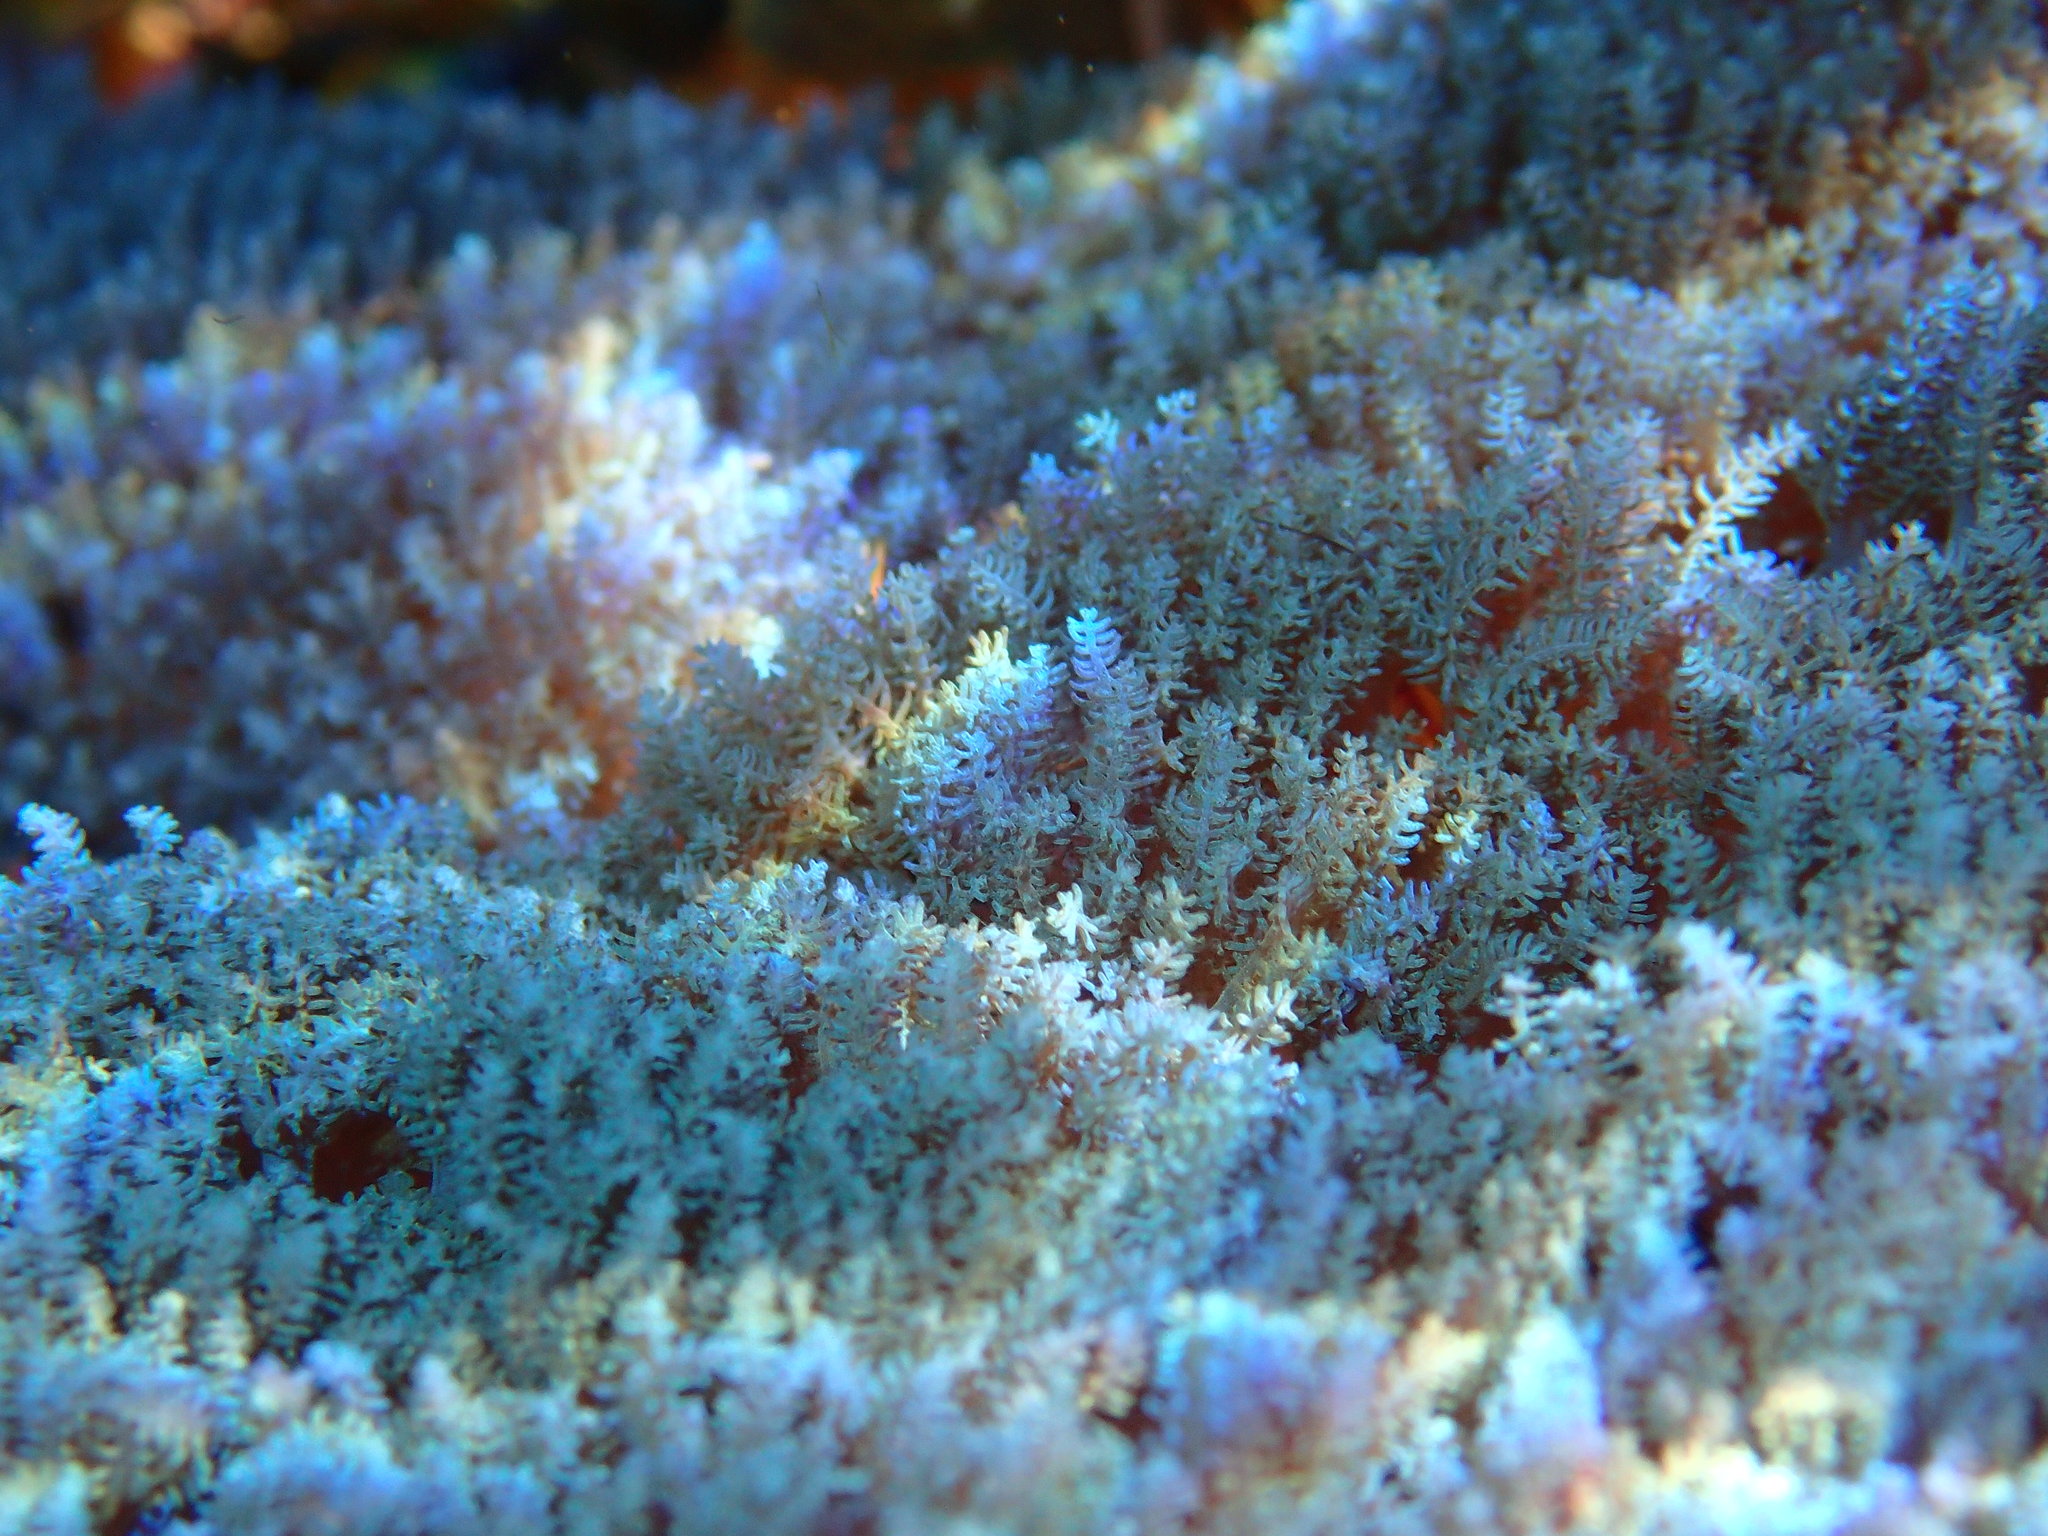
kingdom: Animalia
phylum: Cnidaria
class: Anthozoa
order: Malacalcyonacea
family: Xeniidae
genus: Sansibia
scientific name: Sansibia flava
